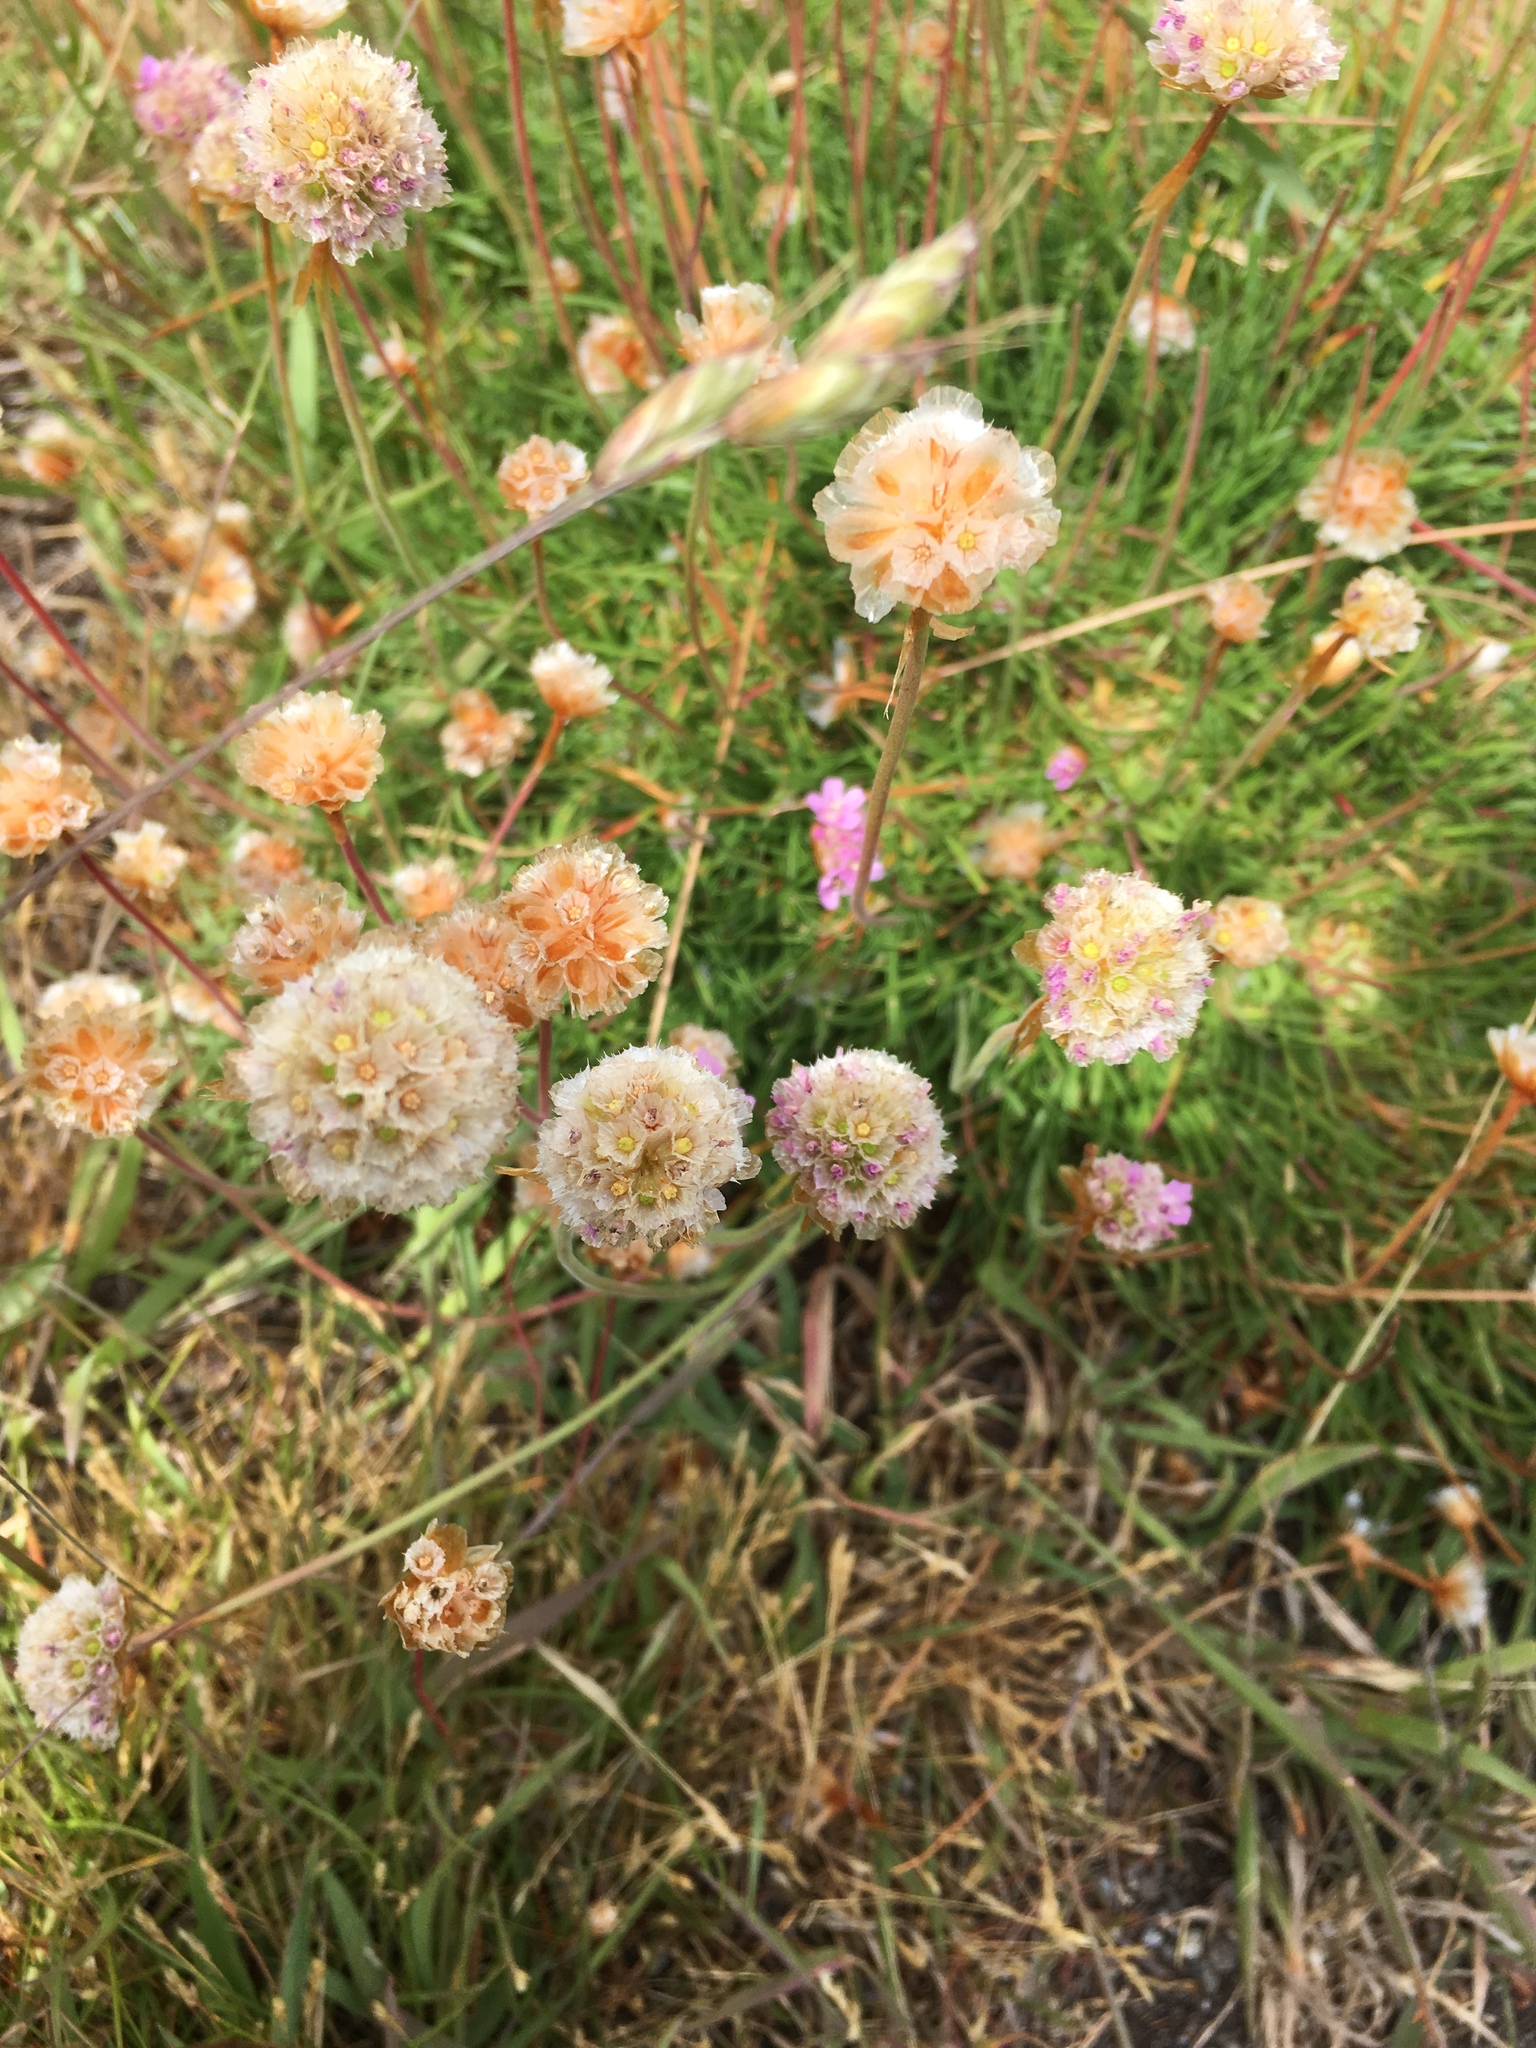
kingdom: Plantae
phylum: Tracheophyta
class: Magnoliopsida
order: Caryophyllales
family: Plumbaginaceae
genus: Armeria
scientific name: Armeria maritima
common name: Thrift
